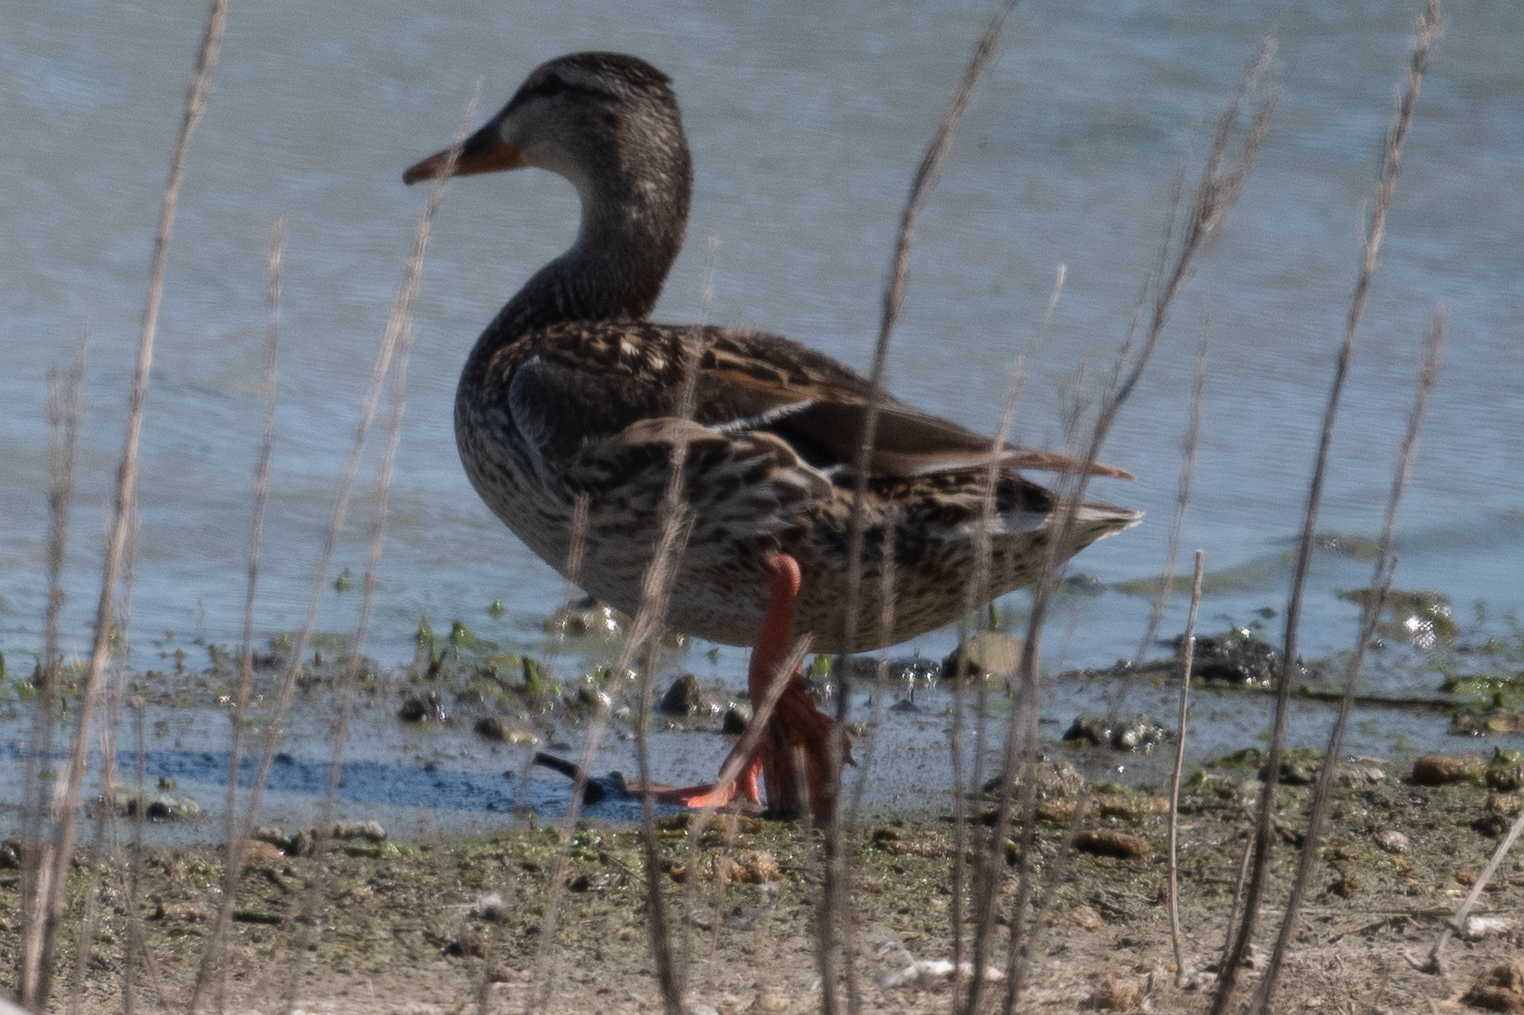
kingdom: Animalia
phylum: Chordata
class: Aves
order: Anseriformes
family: Anatidae
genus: Anas
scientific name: Anas platyrhynchos
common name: Mallard
